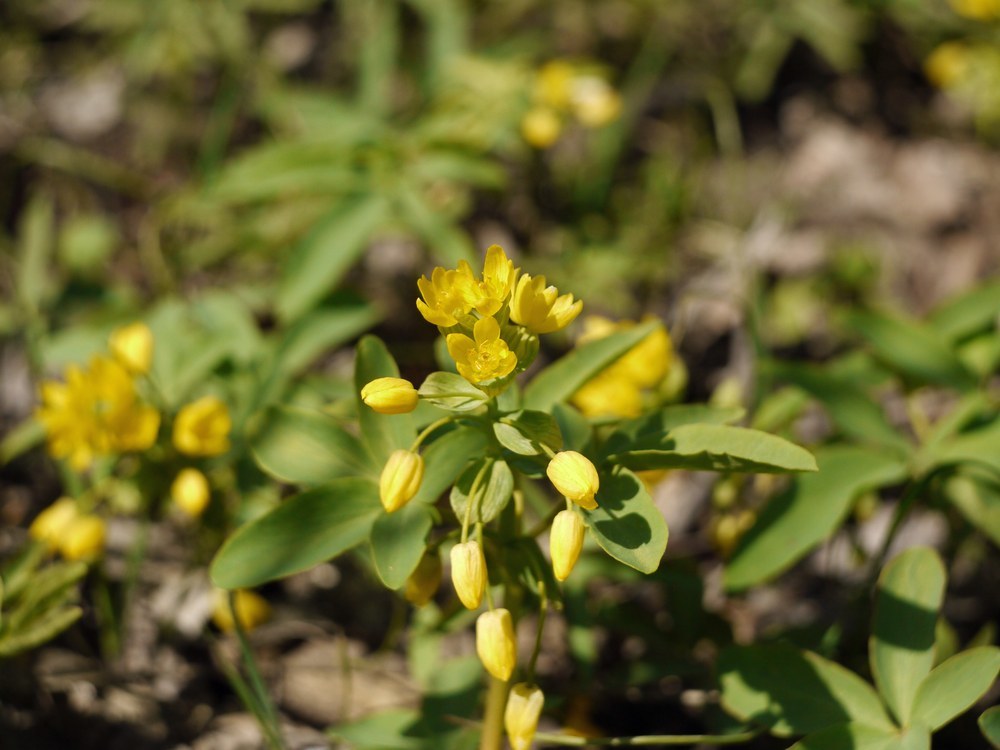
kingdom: Plantae
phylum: Tracheophyta
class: Magnoliopsida
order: Ranunculales
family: Berberidaceae
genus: Gymnospermium
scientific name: Gymnospermium odessanum
